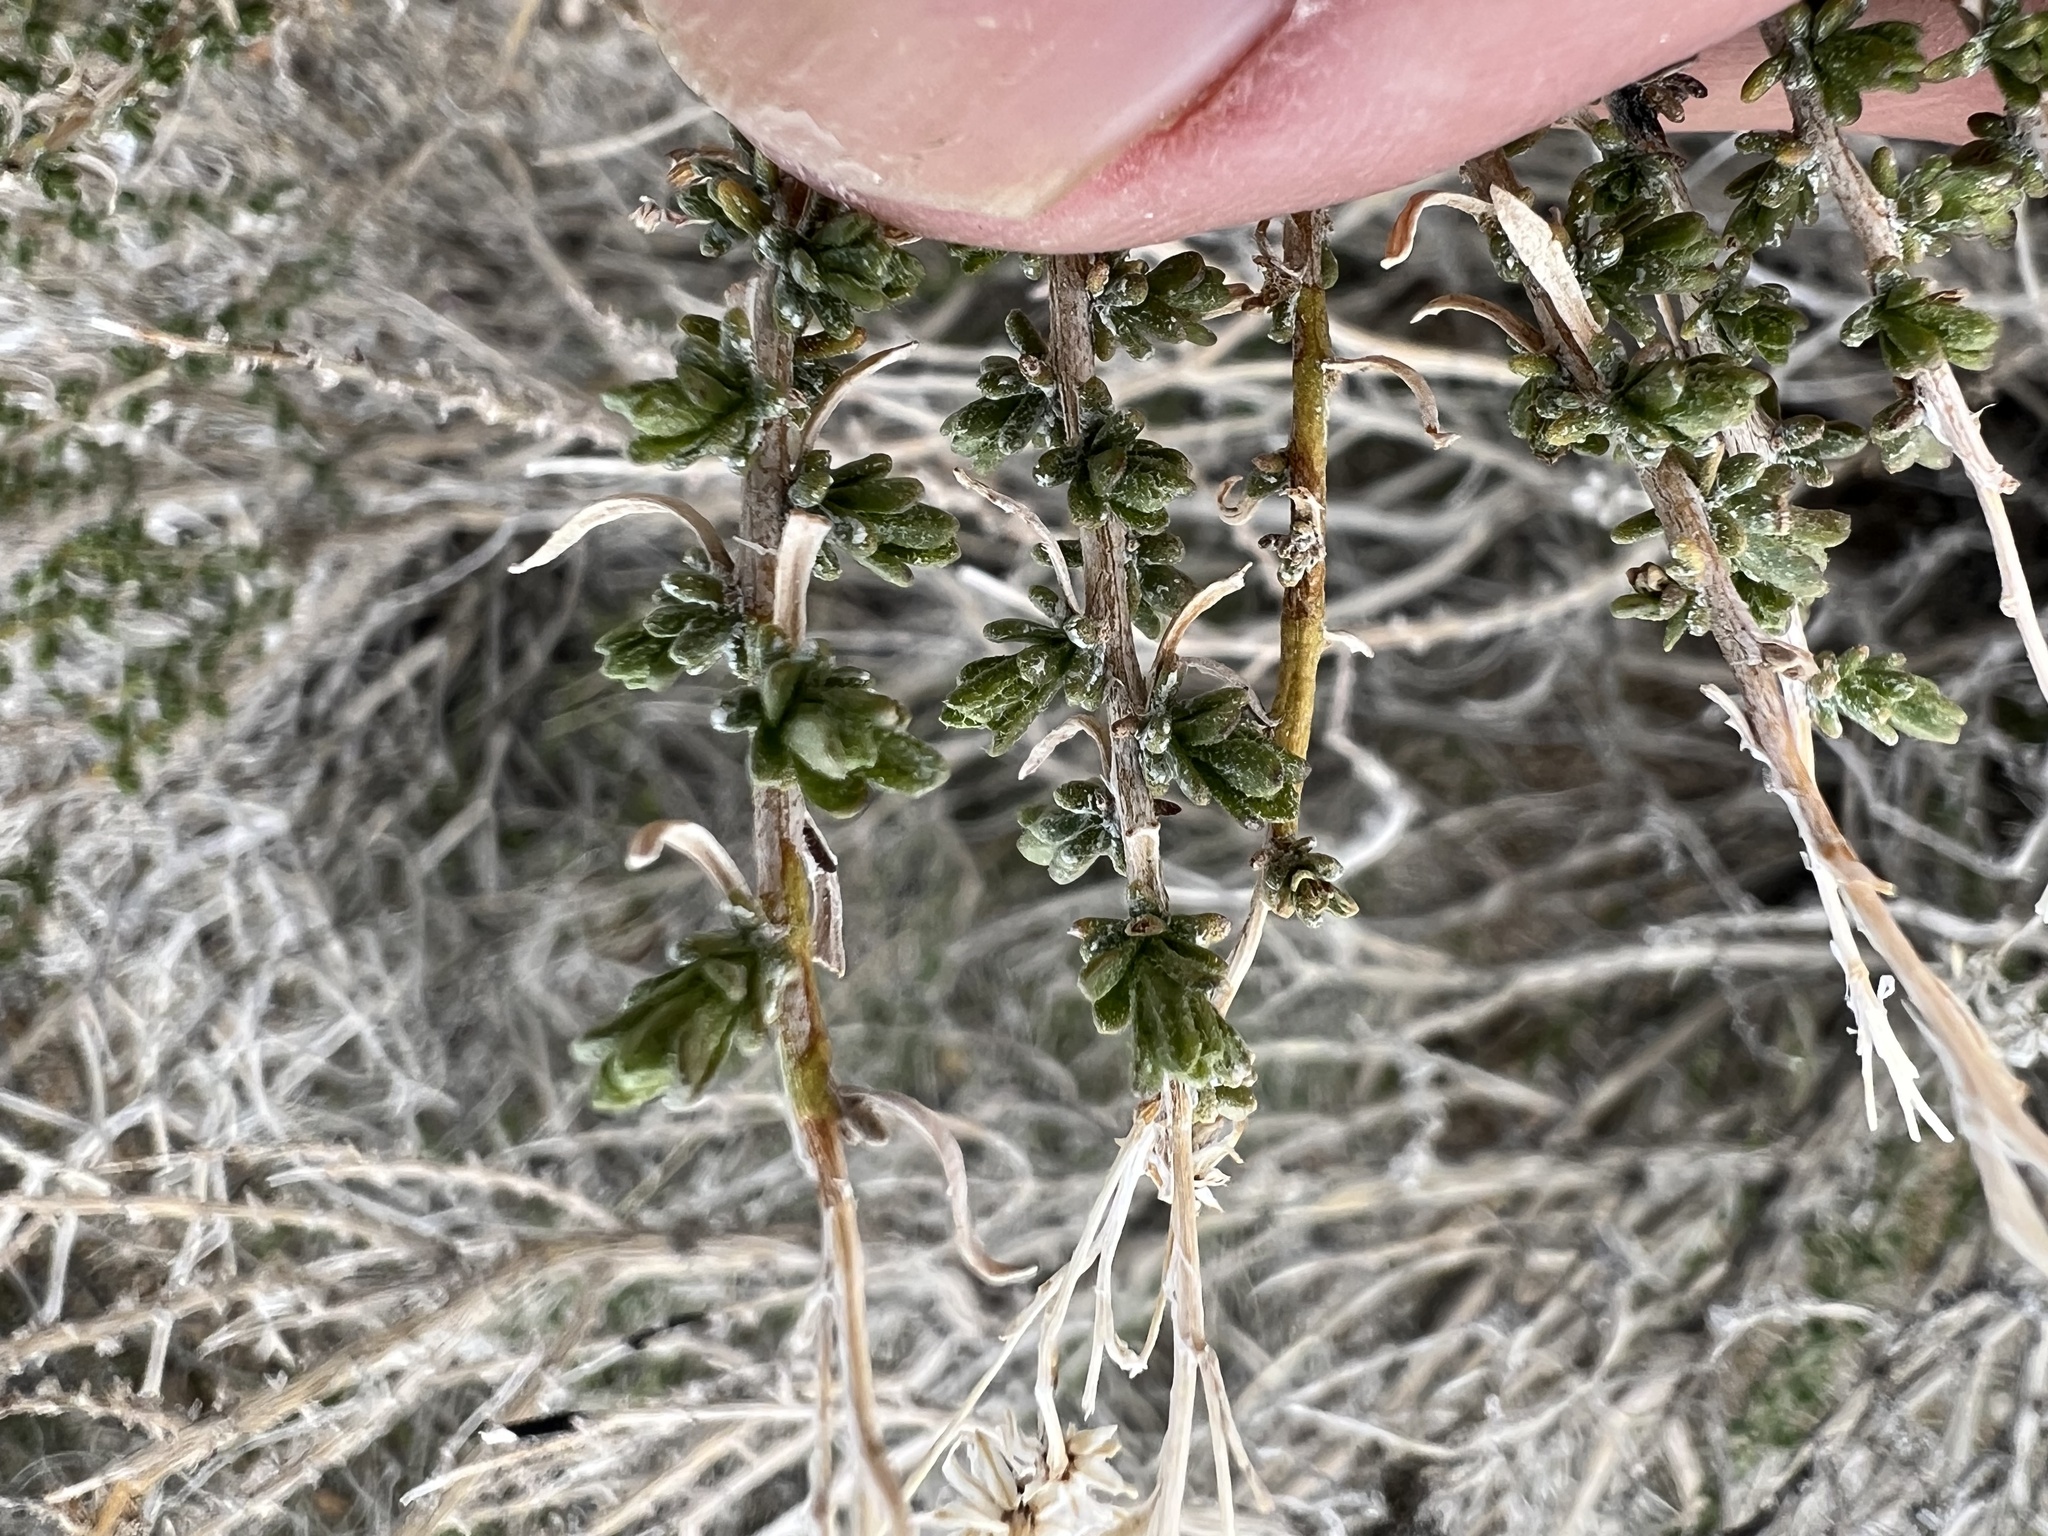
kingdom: Plantae
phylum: Tracheophyta
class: Magnoliopsida
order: Asterales
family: Asteraceae
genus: Ericameria
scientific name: Ericameria cooperi
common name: Cooper's goldenbush
